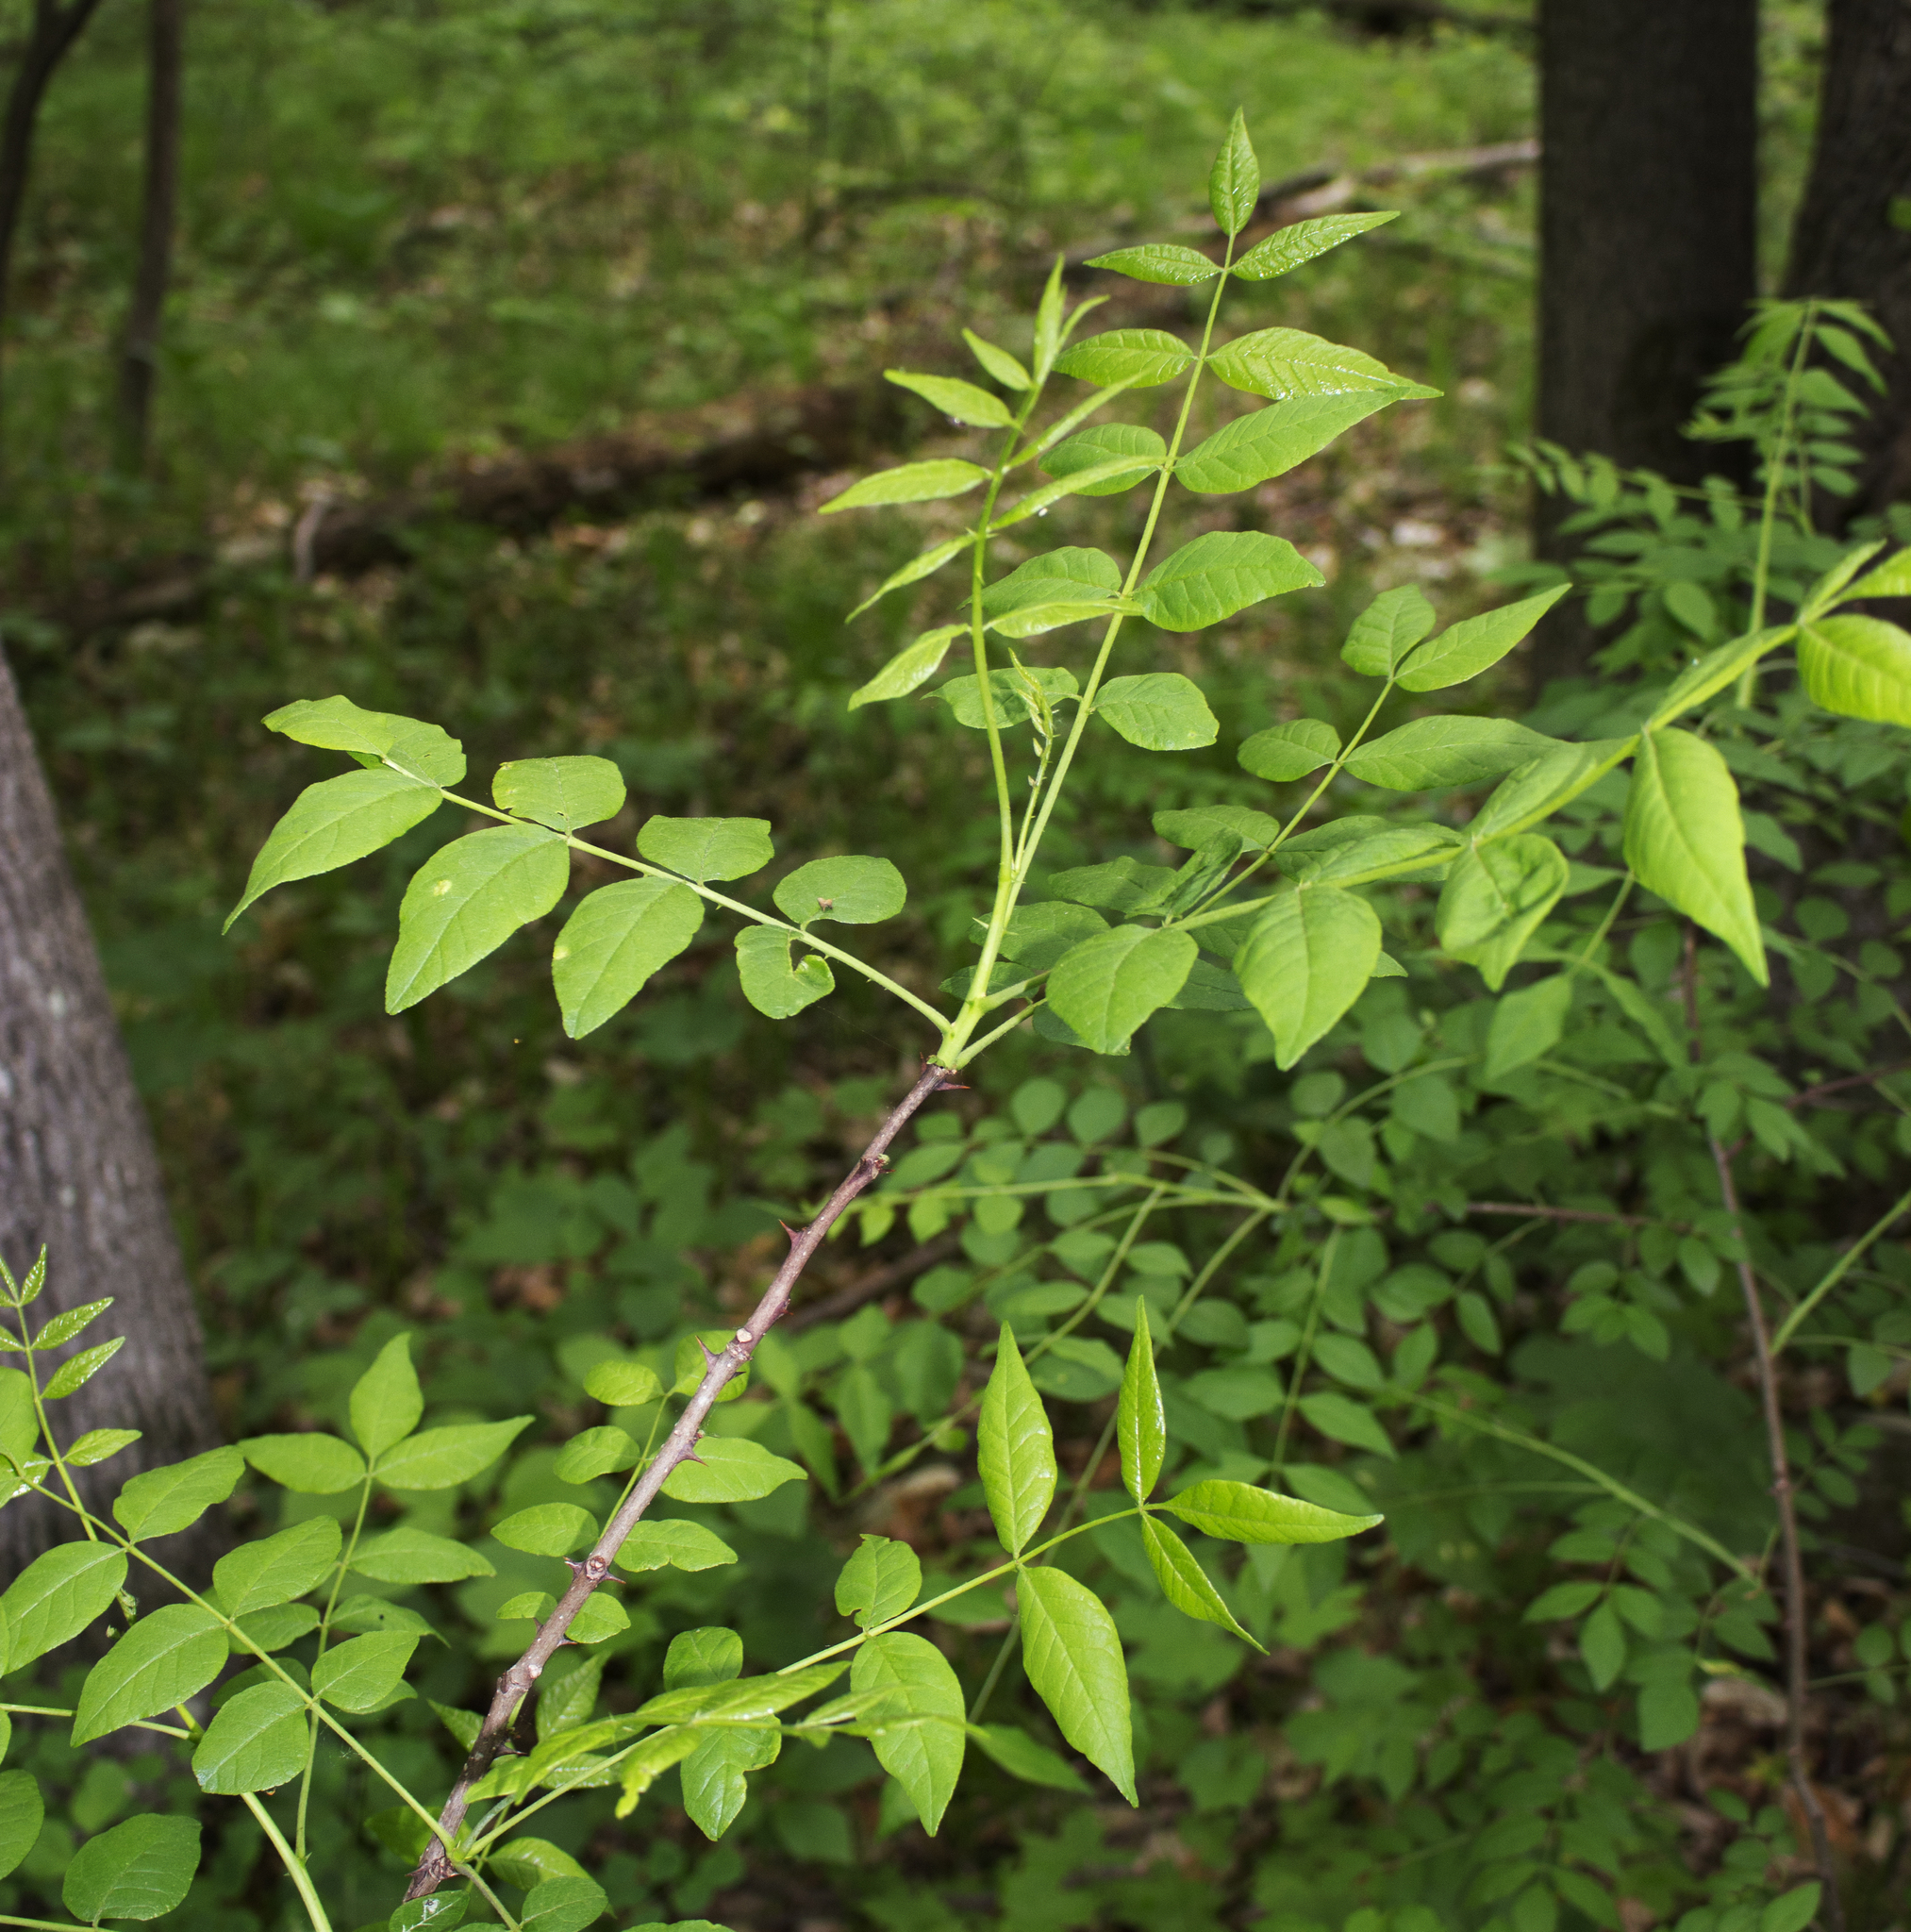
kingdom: Plantae
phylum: Tracheophyta
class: Magnoliopsida
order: Sapindales
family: Rutaceae
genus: Zanthoxylum
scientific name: Zanthoxylum americanum
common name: Northern prickly-ash
